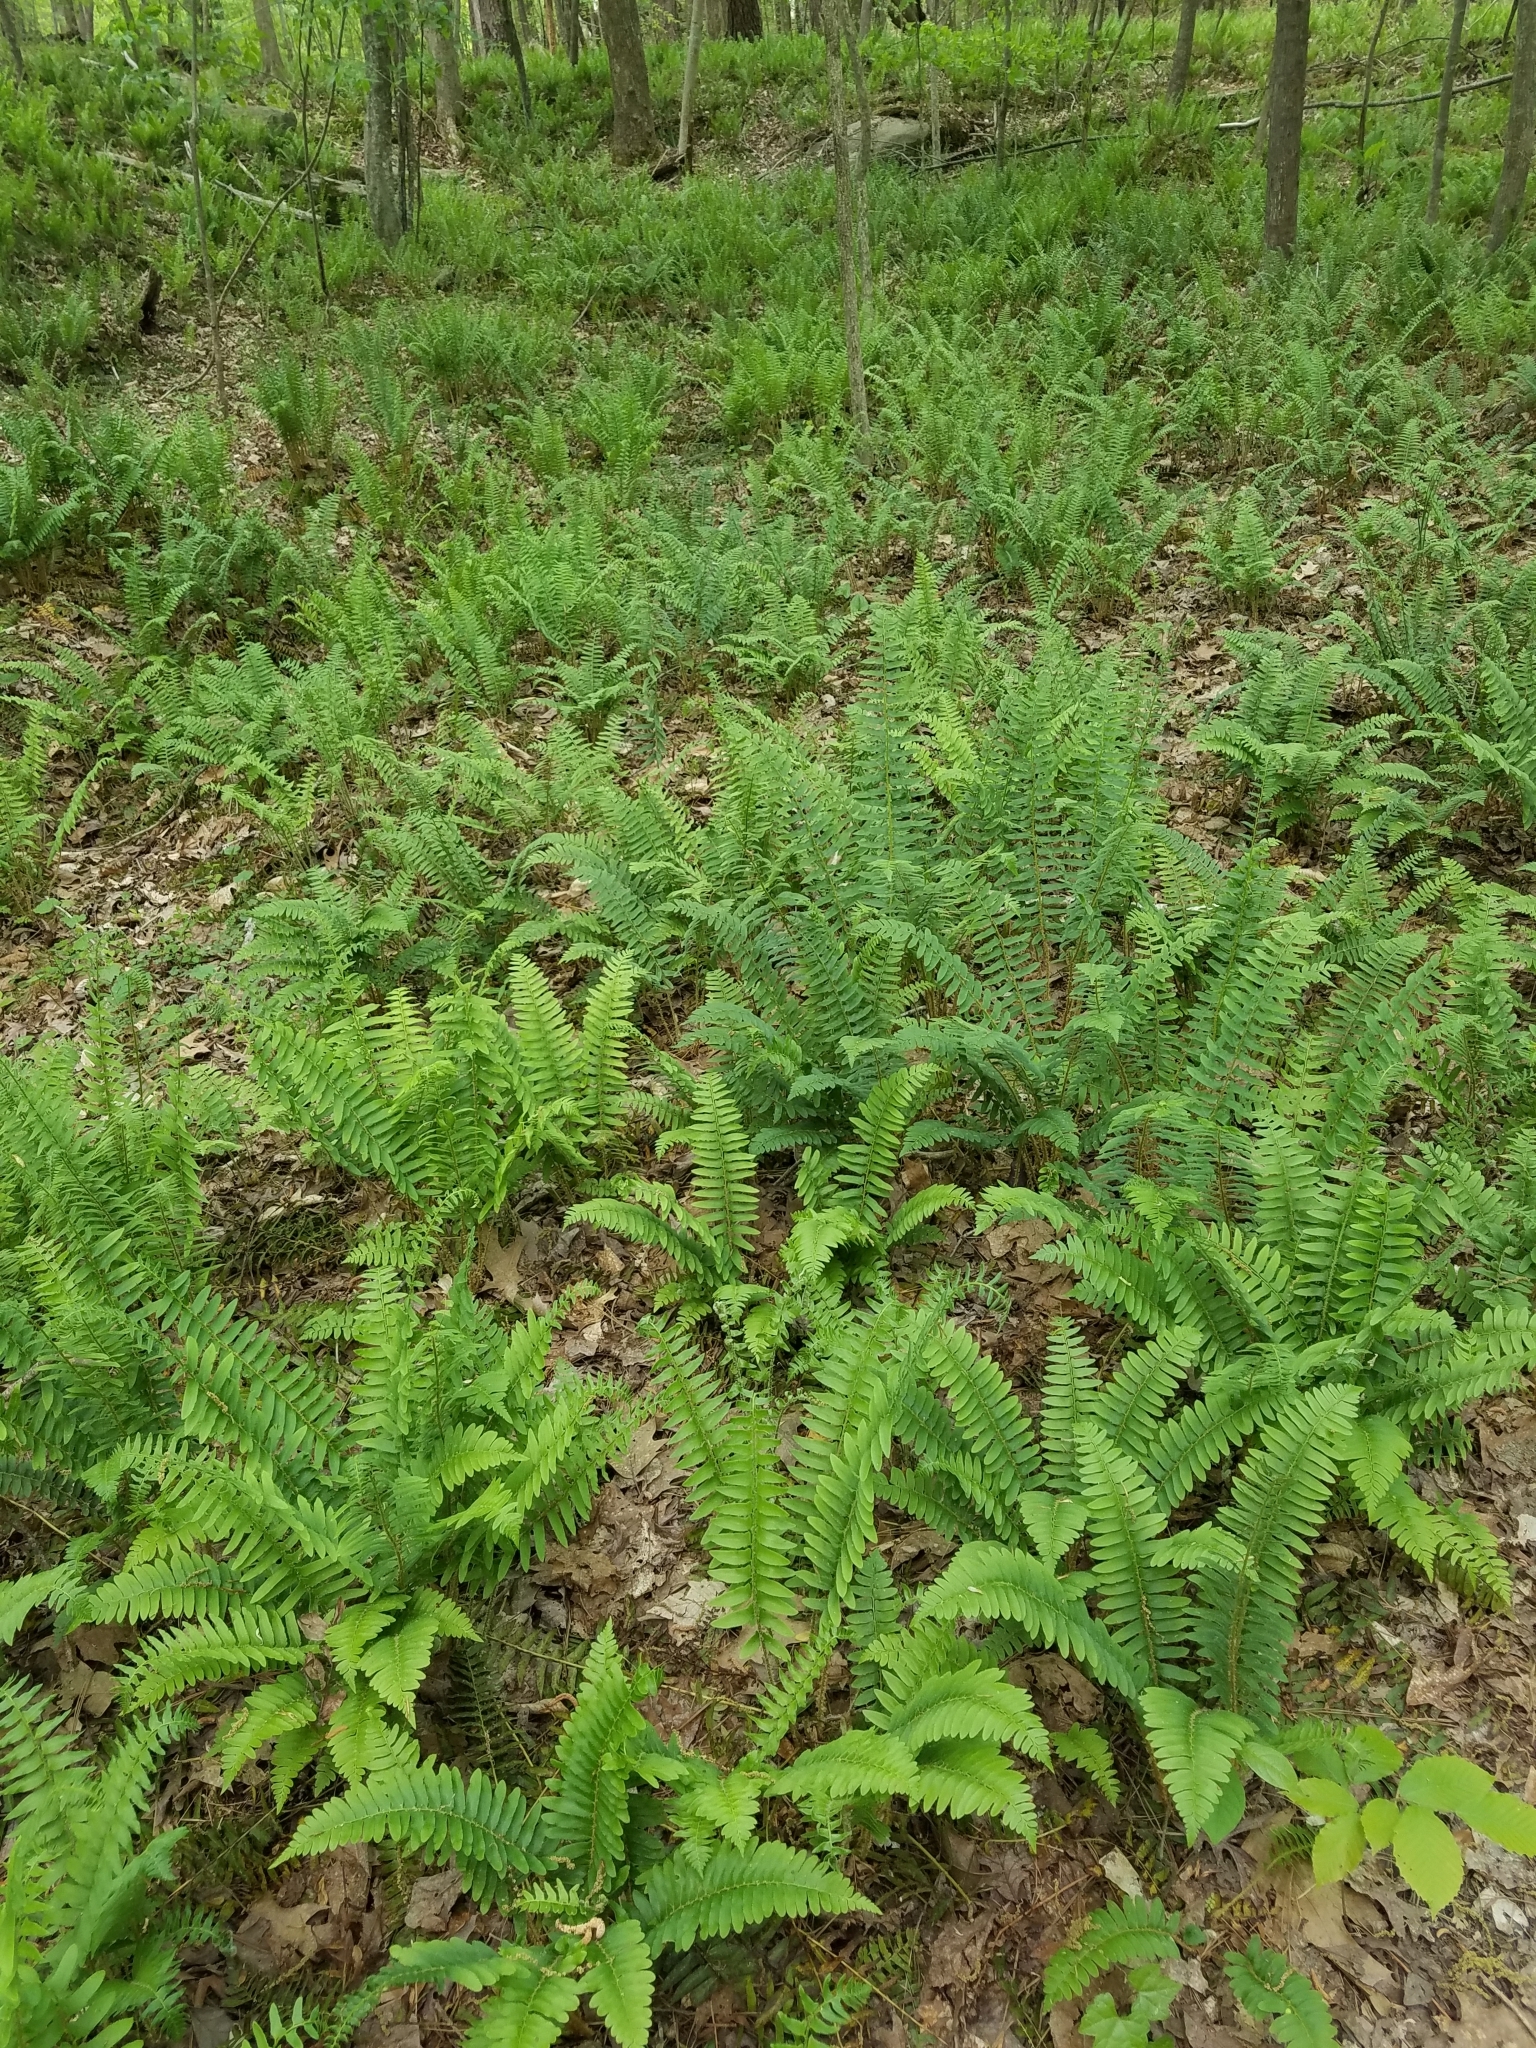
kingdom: Plantae
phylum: Tracheophyta
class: Polypodiopsida
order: Polypodiales
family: Dryopteridaceae
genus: Polystichum
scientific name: Polystichum acrostichoides
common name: Christmas fern
